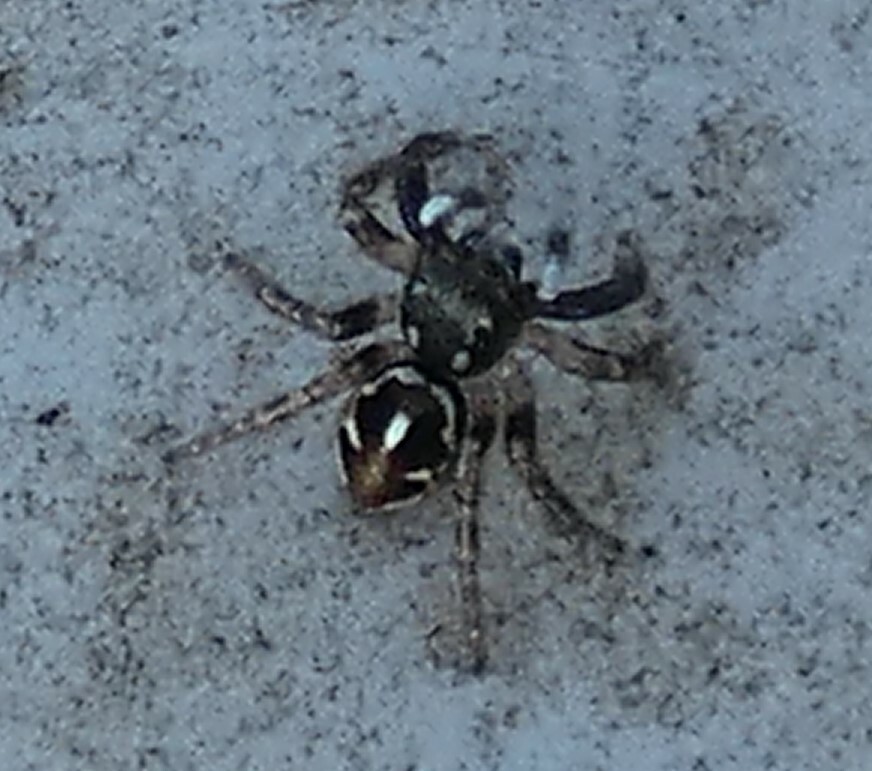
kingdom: Animalia
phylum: Arthropoda
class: Arachnida
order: Araneae
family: Salticidae
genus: Anasaitis
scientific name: Anasaitis canosa
